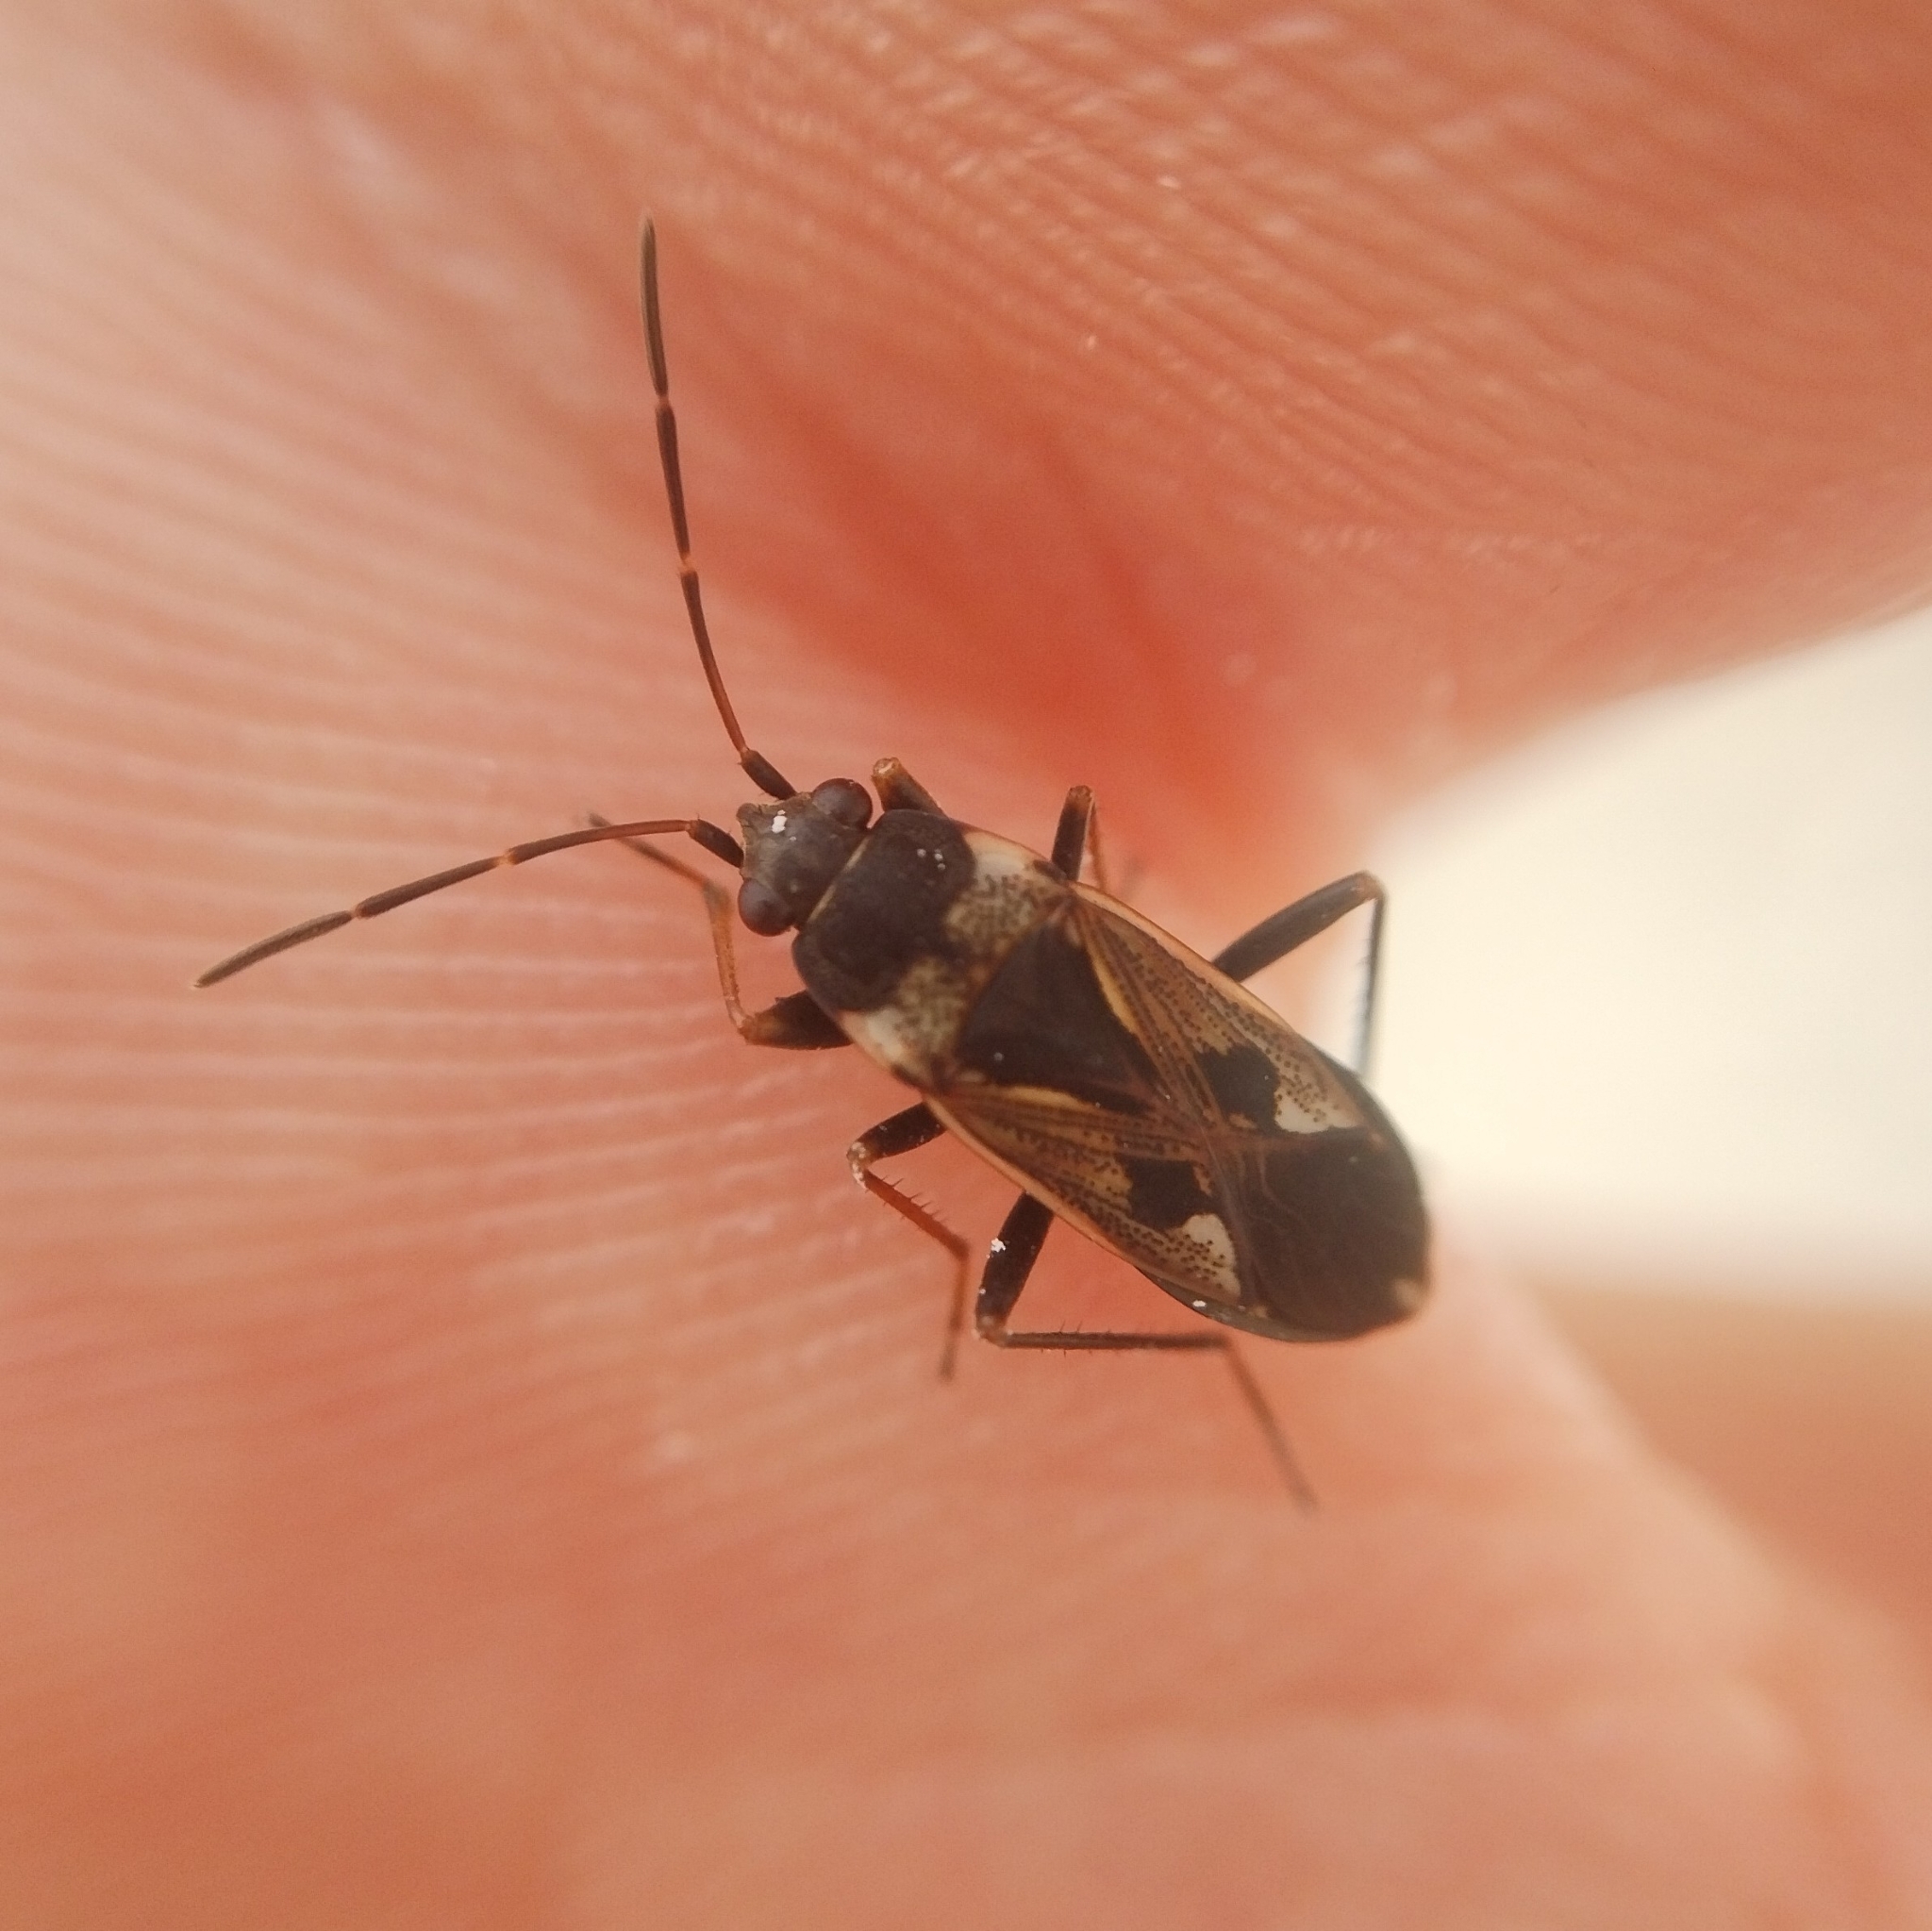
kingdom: Animalia
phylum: Arthropoda
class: Insecta
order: Hemiptera
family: Rhyparochromidae
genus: Rhyparochromus
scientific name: Rhyparochromus vulgaris
